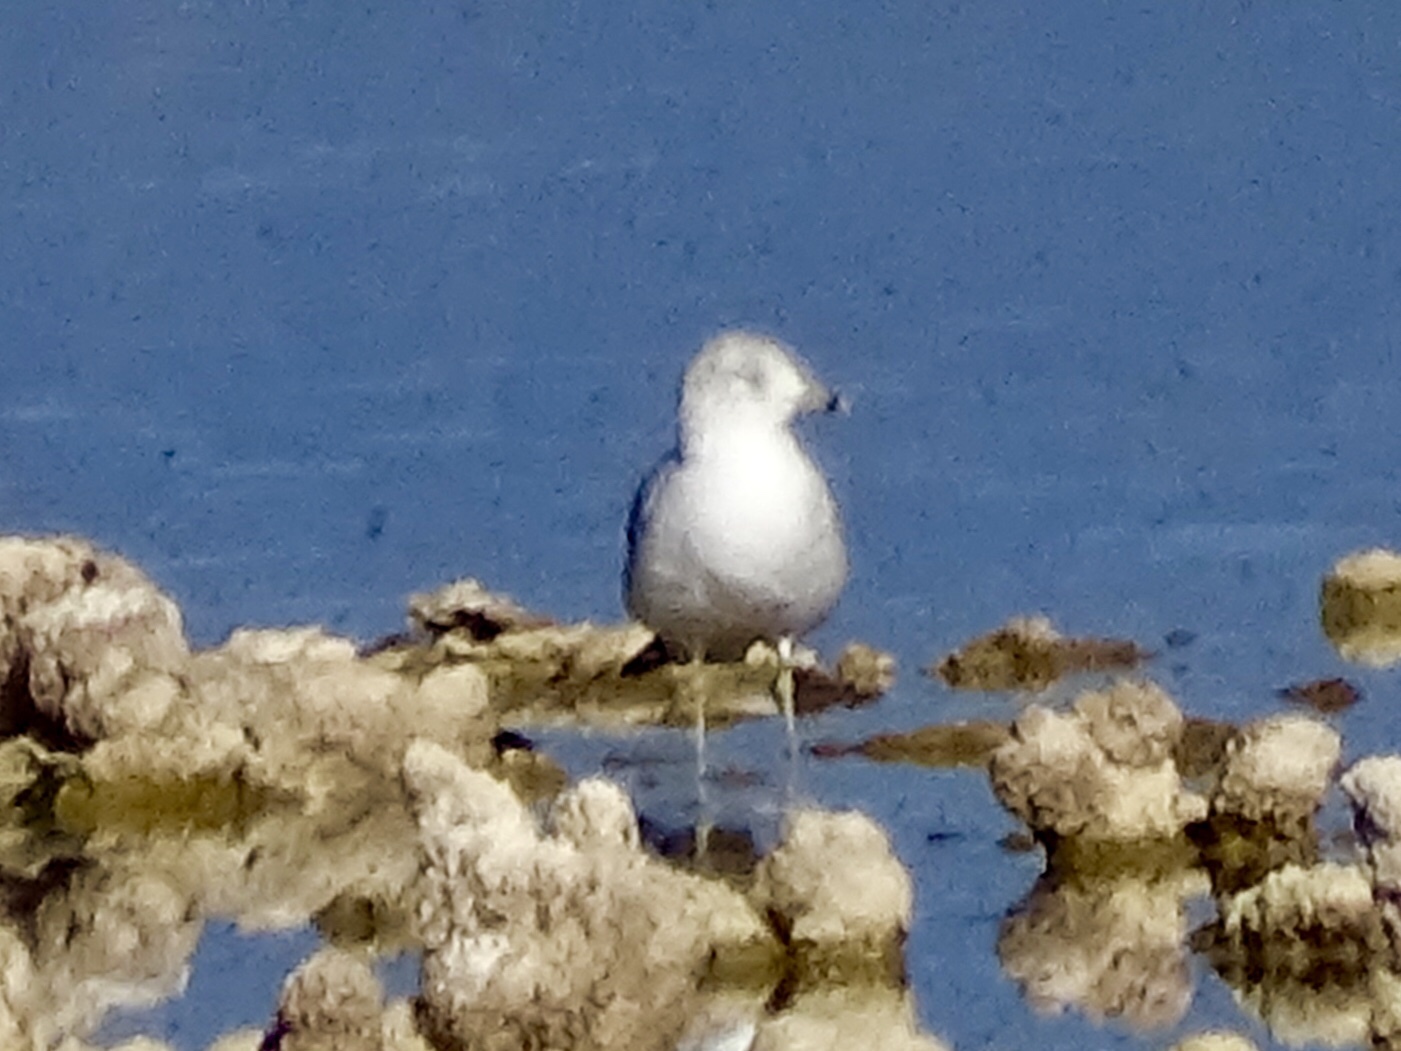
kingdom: Animalia
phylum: Chordata
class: Aves
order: Charadriiformes
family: Laridae
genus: Larus
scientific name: Larus delawarensis
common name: Ring-billed gull
